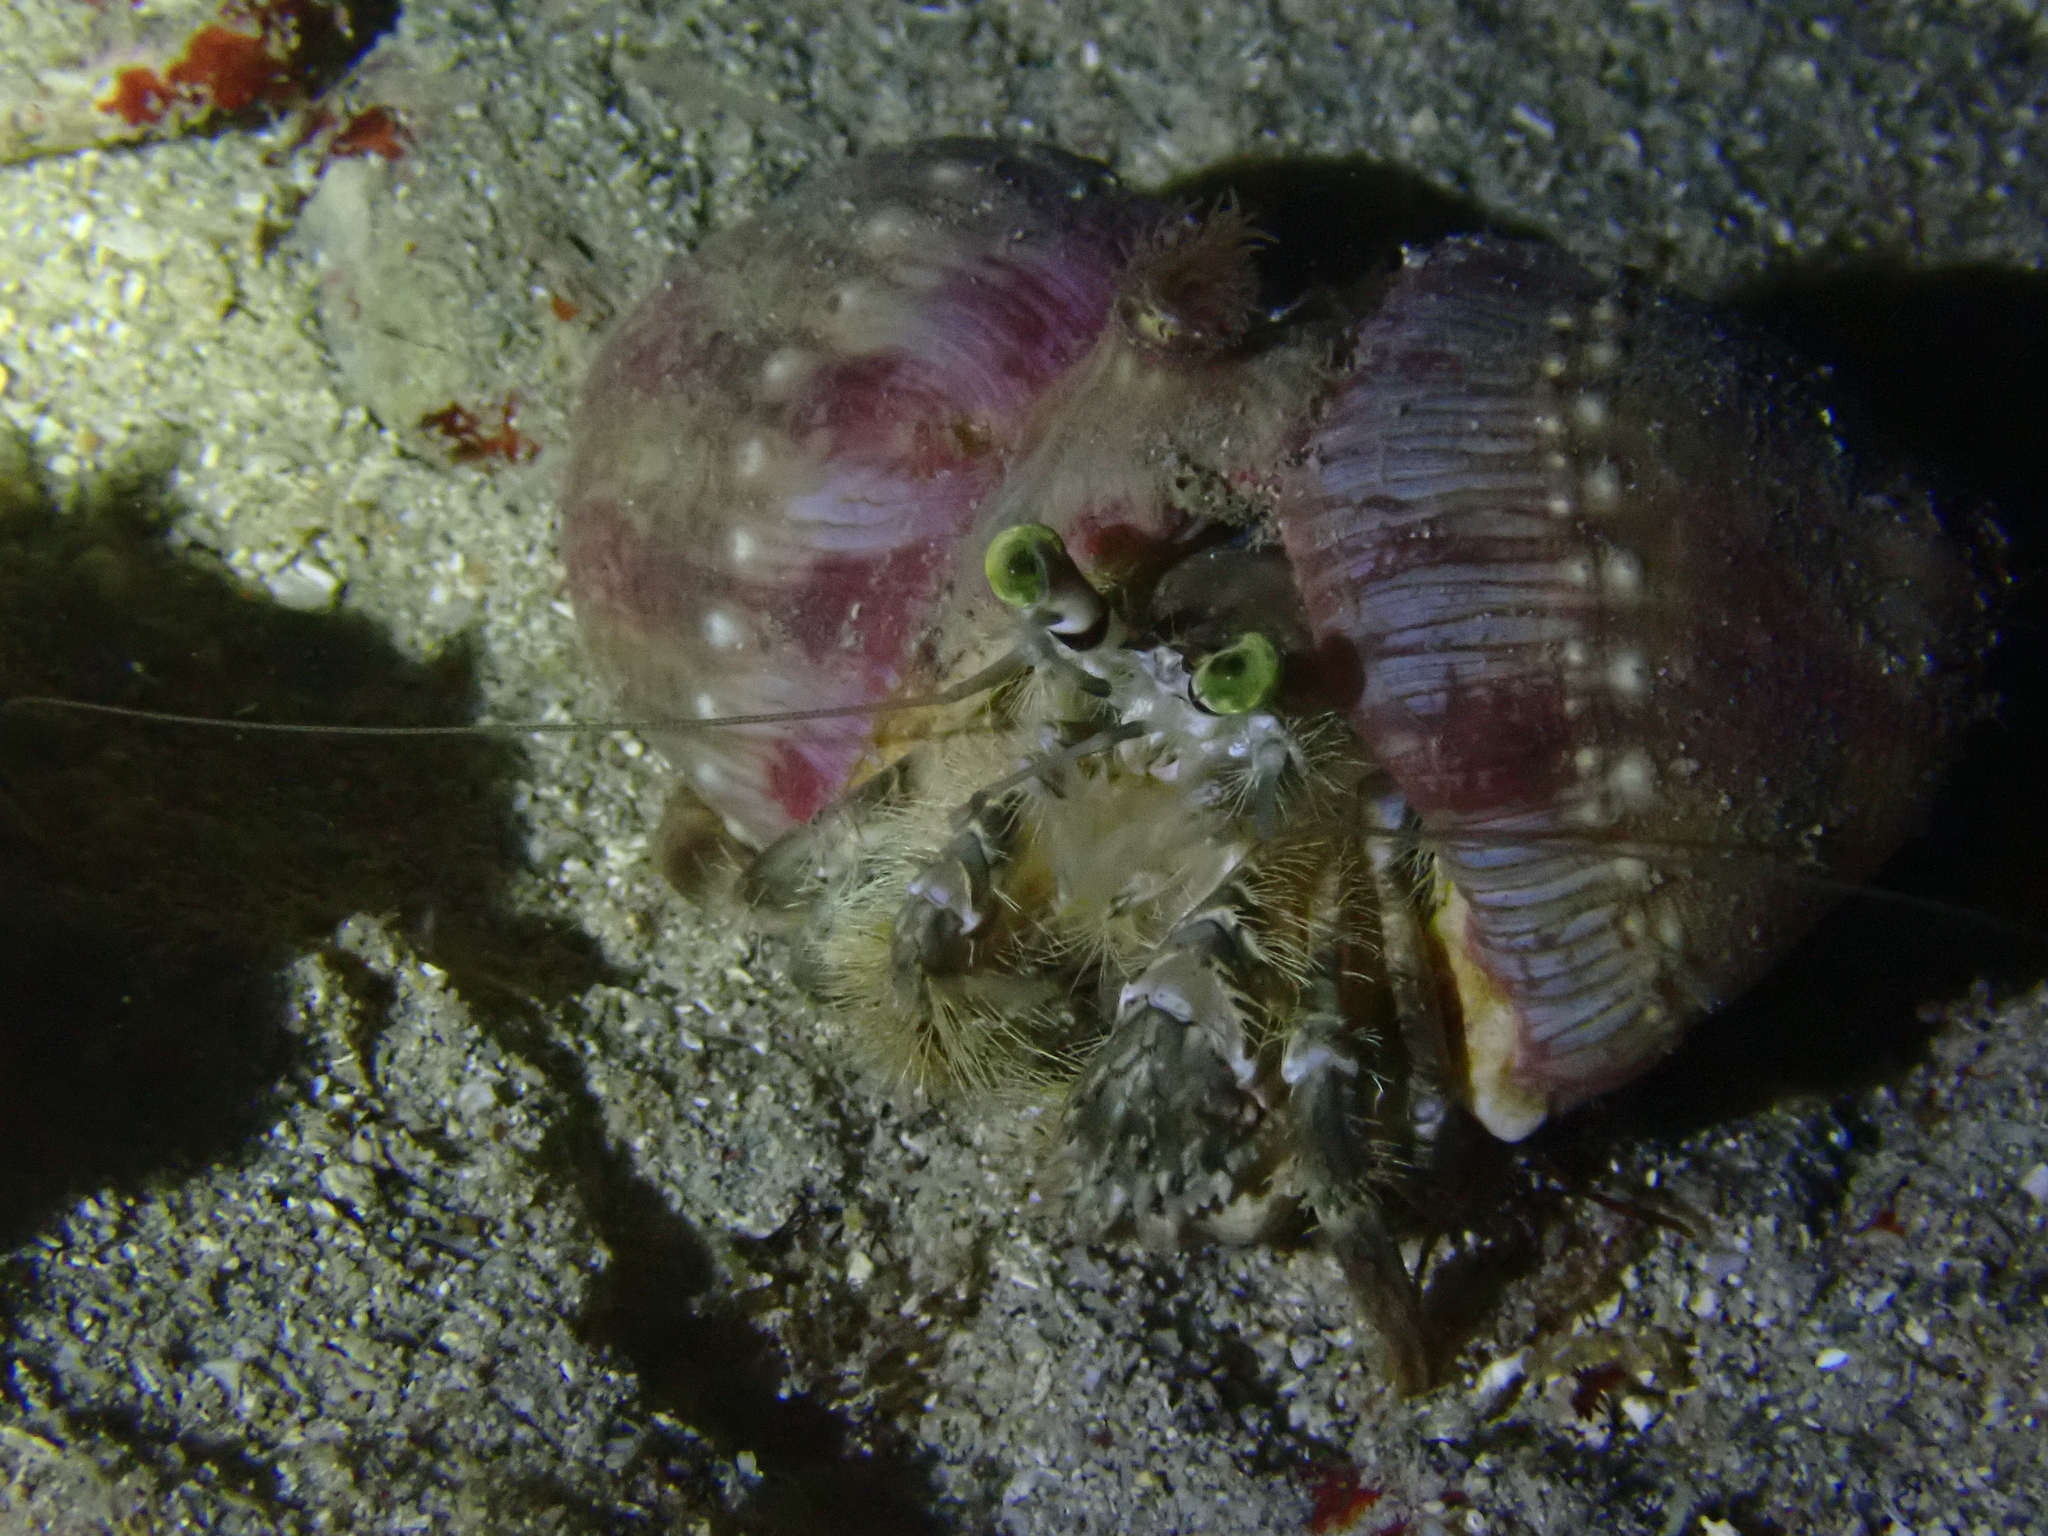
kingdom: Animalia
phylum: Arthropoda
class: Malacostraca
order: Decapoda
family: Diogenidae
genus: Dardanus
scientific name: Dardanus deformis
